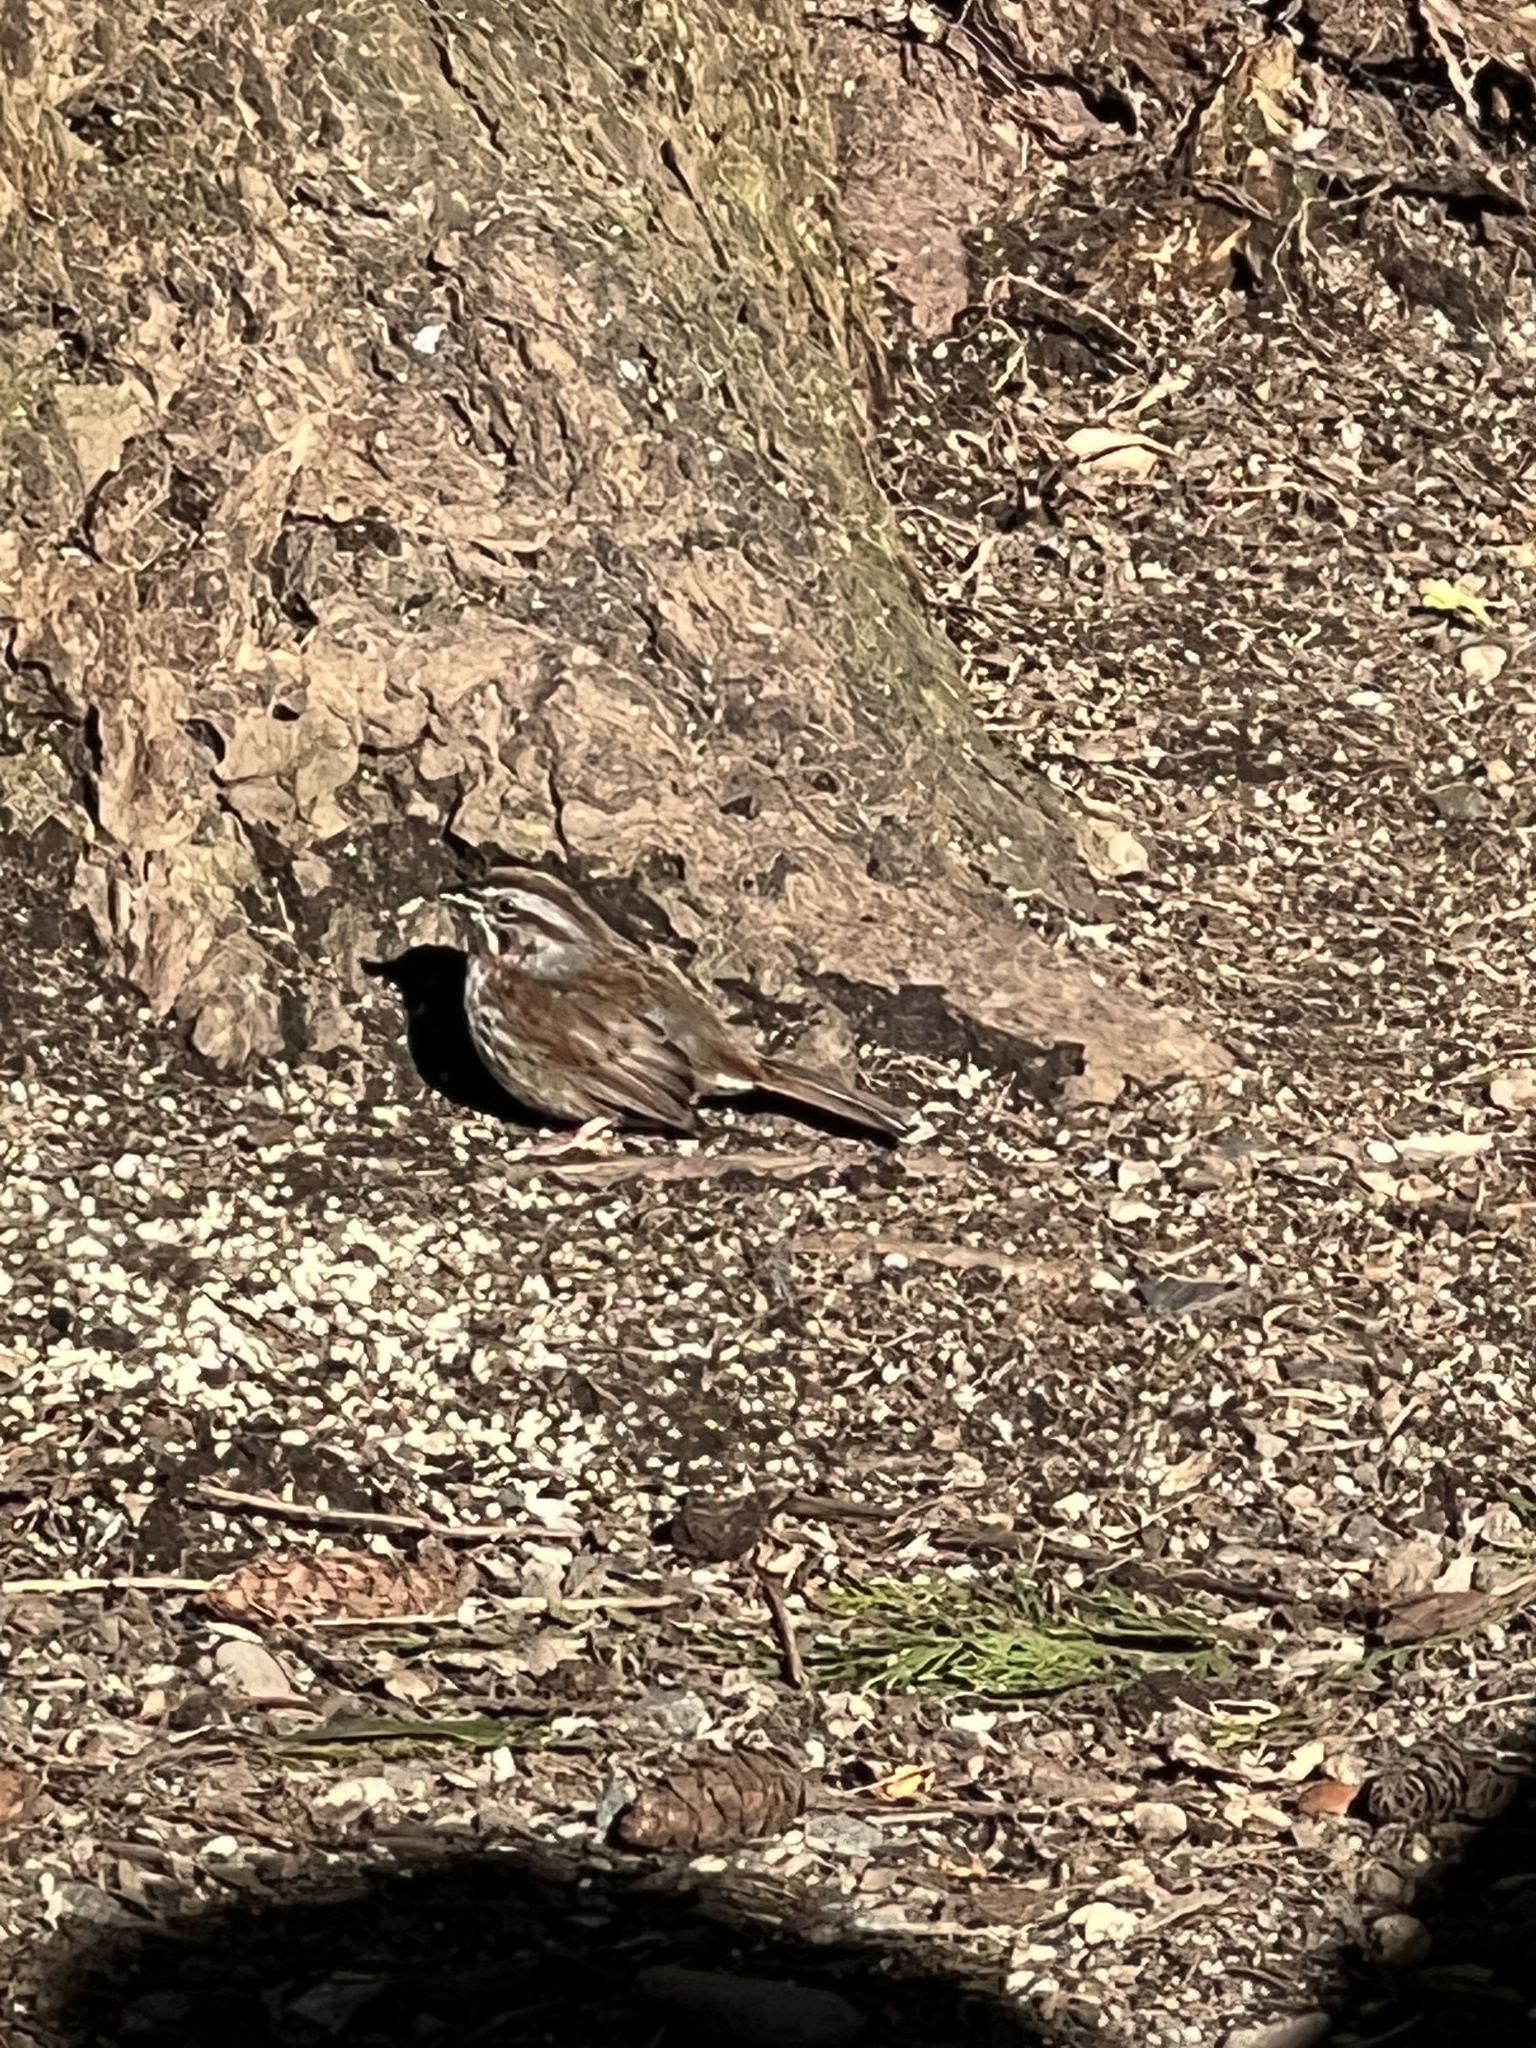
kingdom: Animalia
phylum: Chordata
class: Aves
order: Passeriformes
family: Passerellidae
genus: Melospiza
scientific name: Melospiza melodia
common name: Song sparrow
